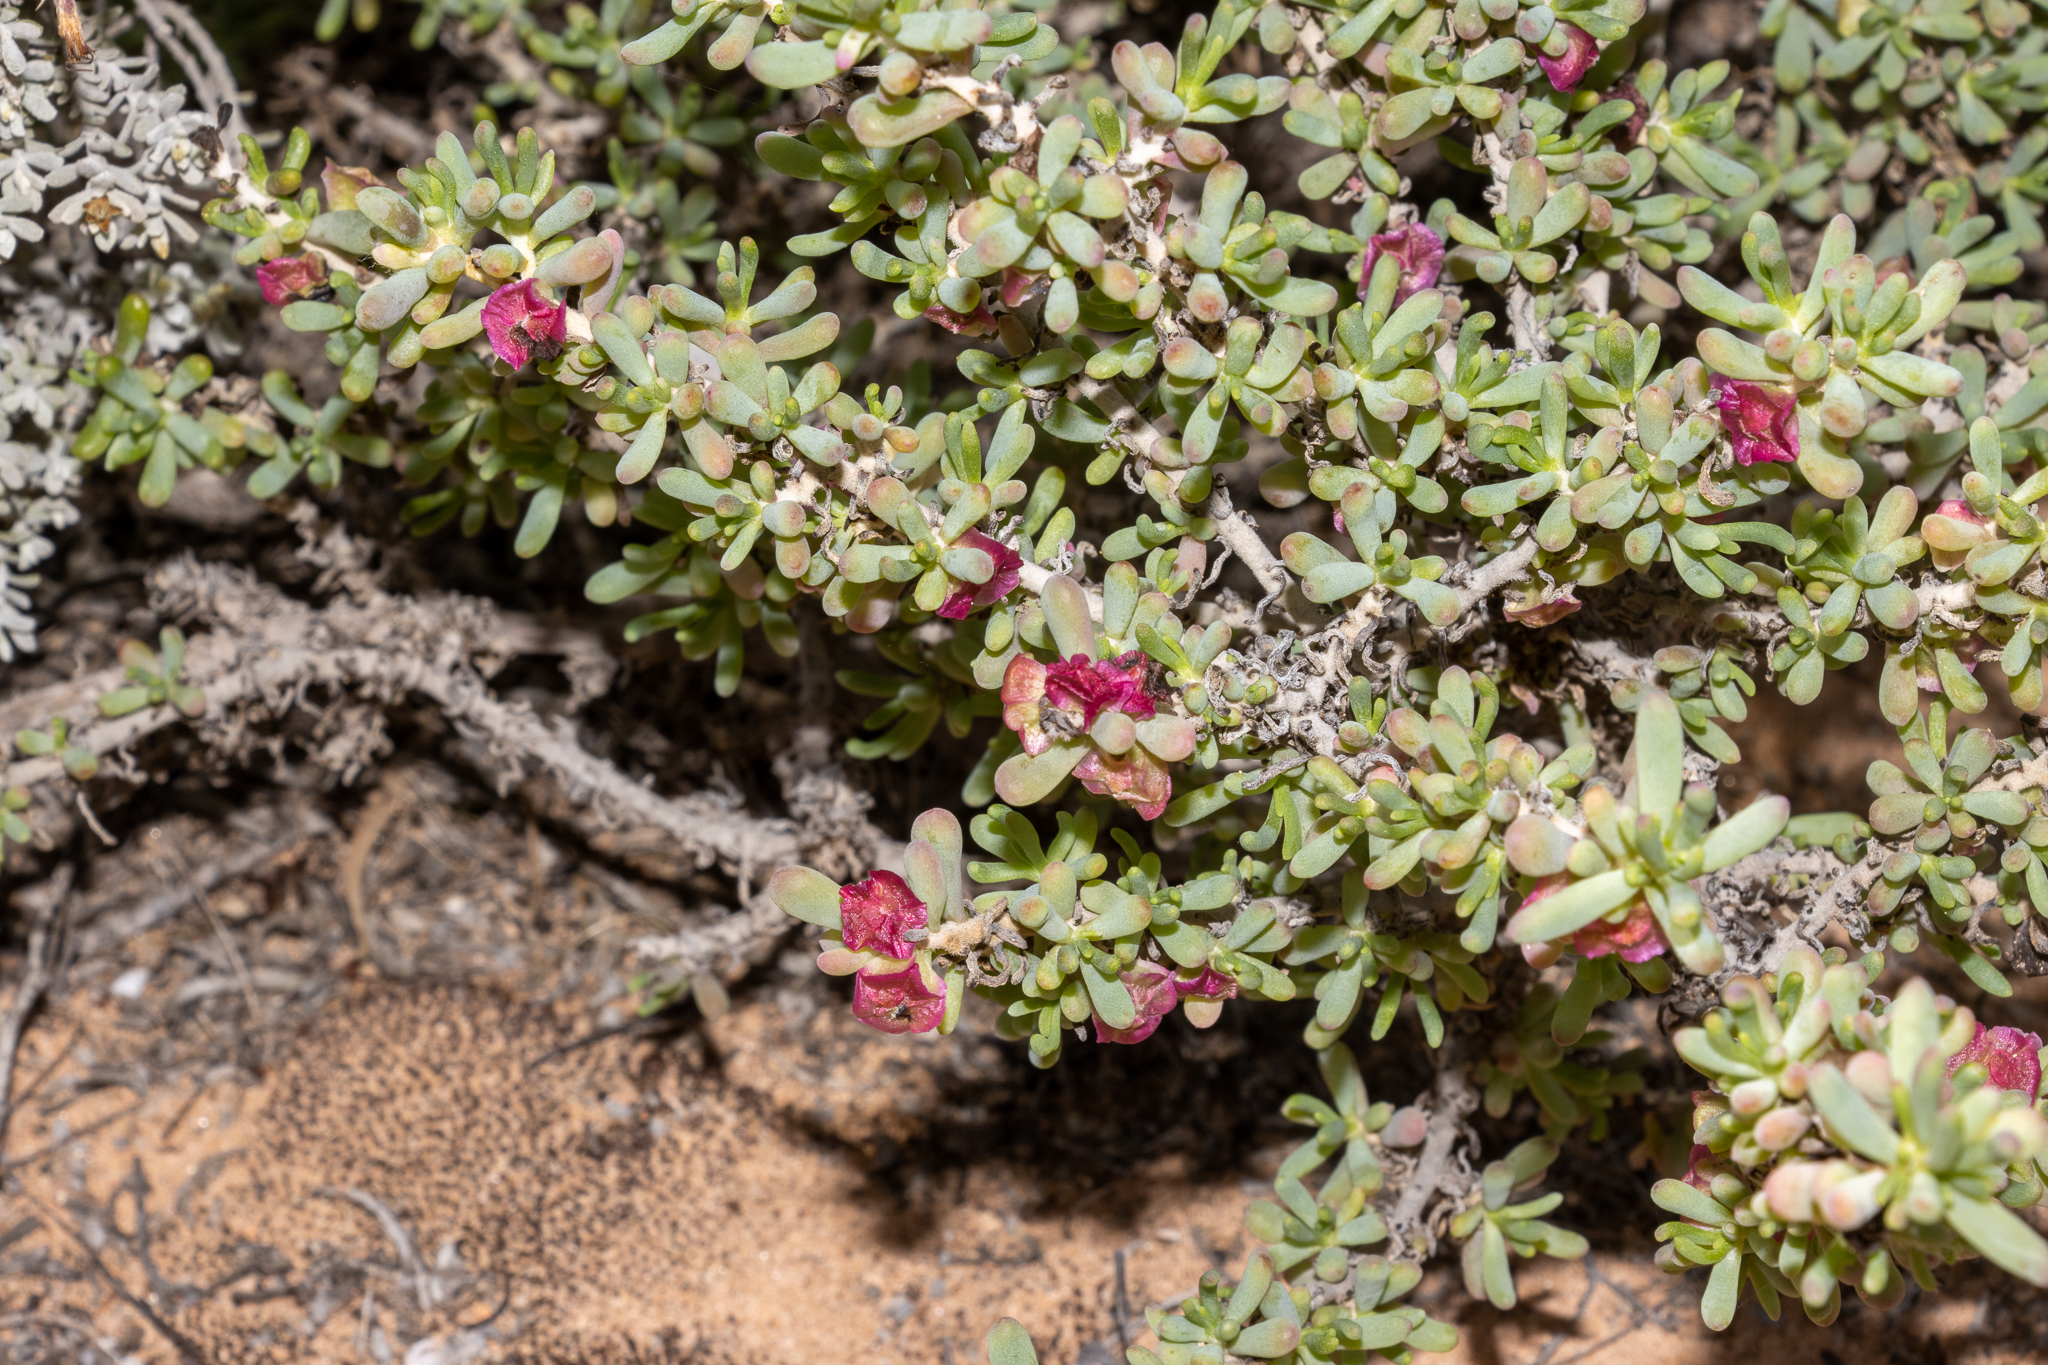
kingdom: Plantae
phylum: Tracheophyta
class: Magnoliopsida
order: Caryophyllales
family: Amaranthaceae
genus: Maireana
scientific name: Maireana erioclada
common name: Rosy bluebush
